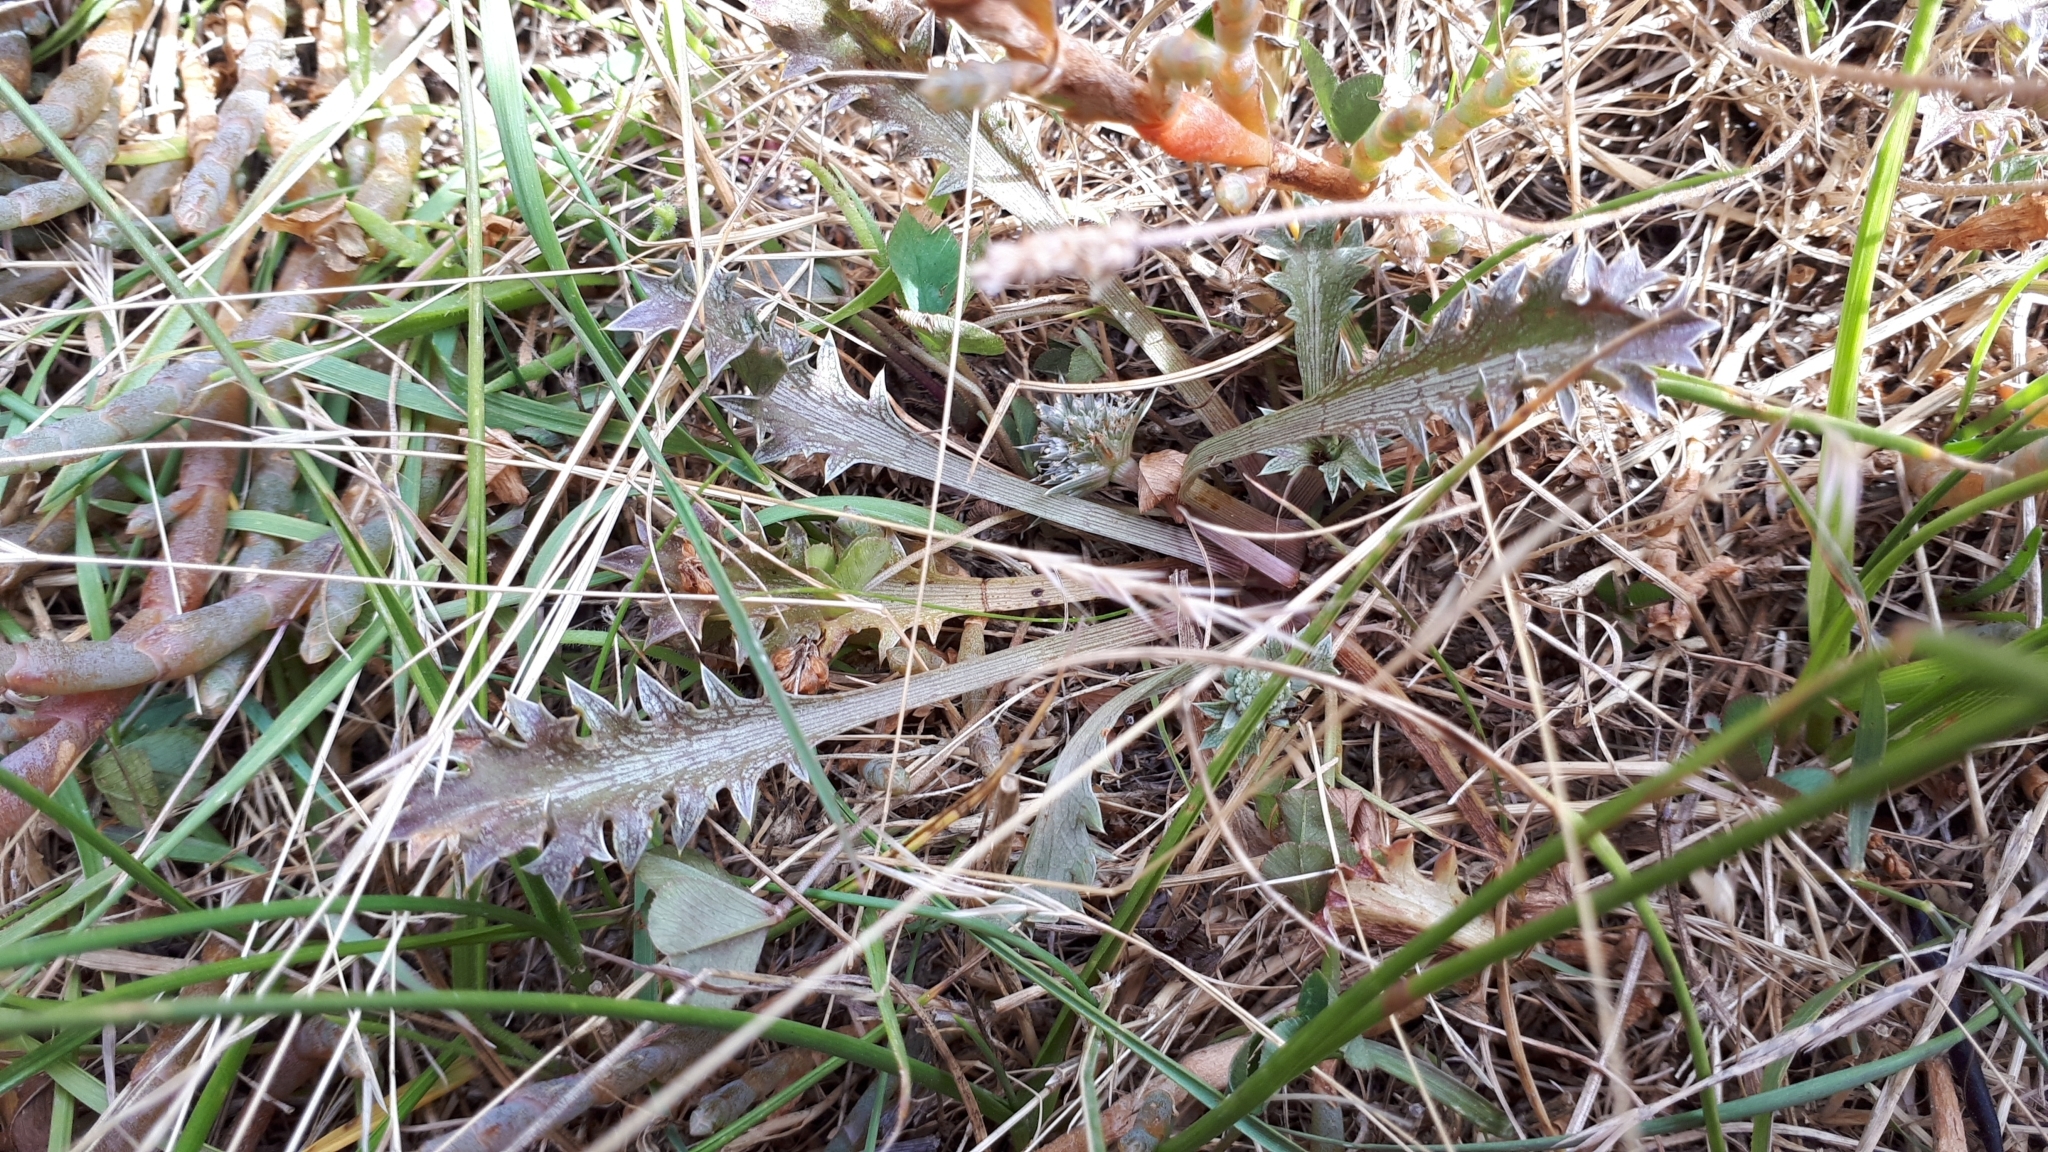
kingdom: Plantae
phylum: Tracheophyta
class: Magnoliopsida
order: Apiales
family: Apiaceae
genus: Eryngium
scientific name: Eryngium vesiculosum
